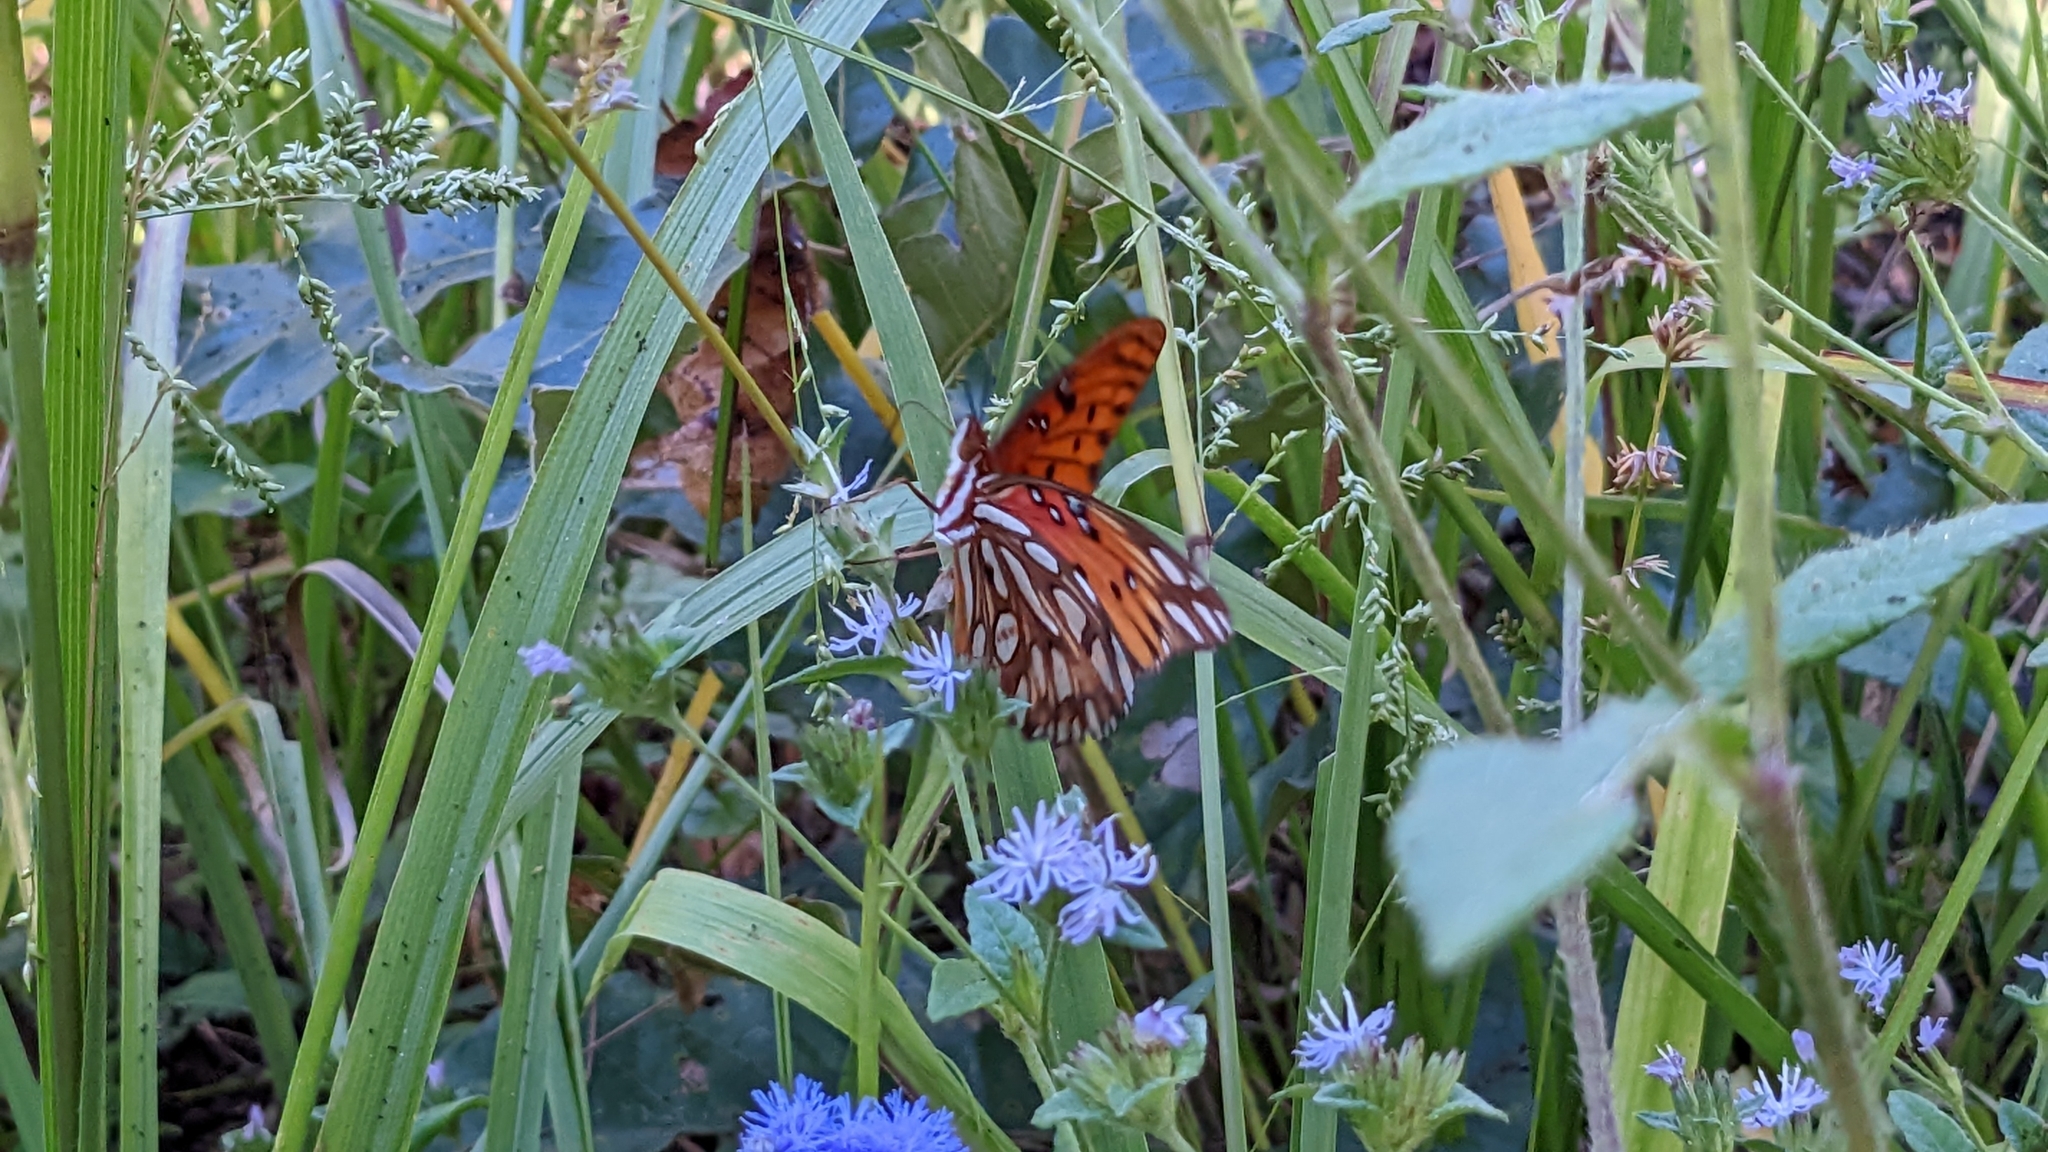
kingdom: Animalia
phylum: Arthropoda
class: Insecta
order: Lepidoptera
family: Nymphalidae
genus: Dione
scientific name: Dione vanillae
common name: Gulf fritillary
